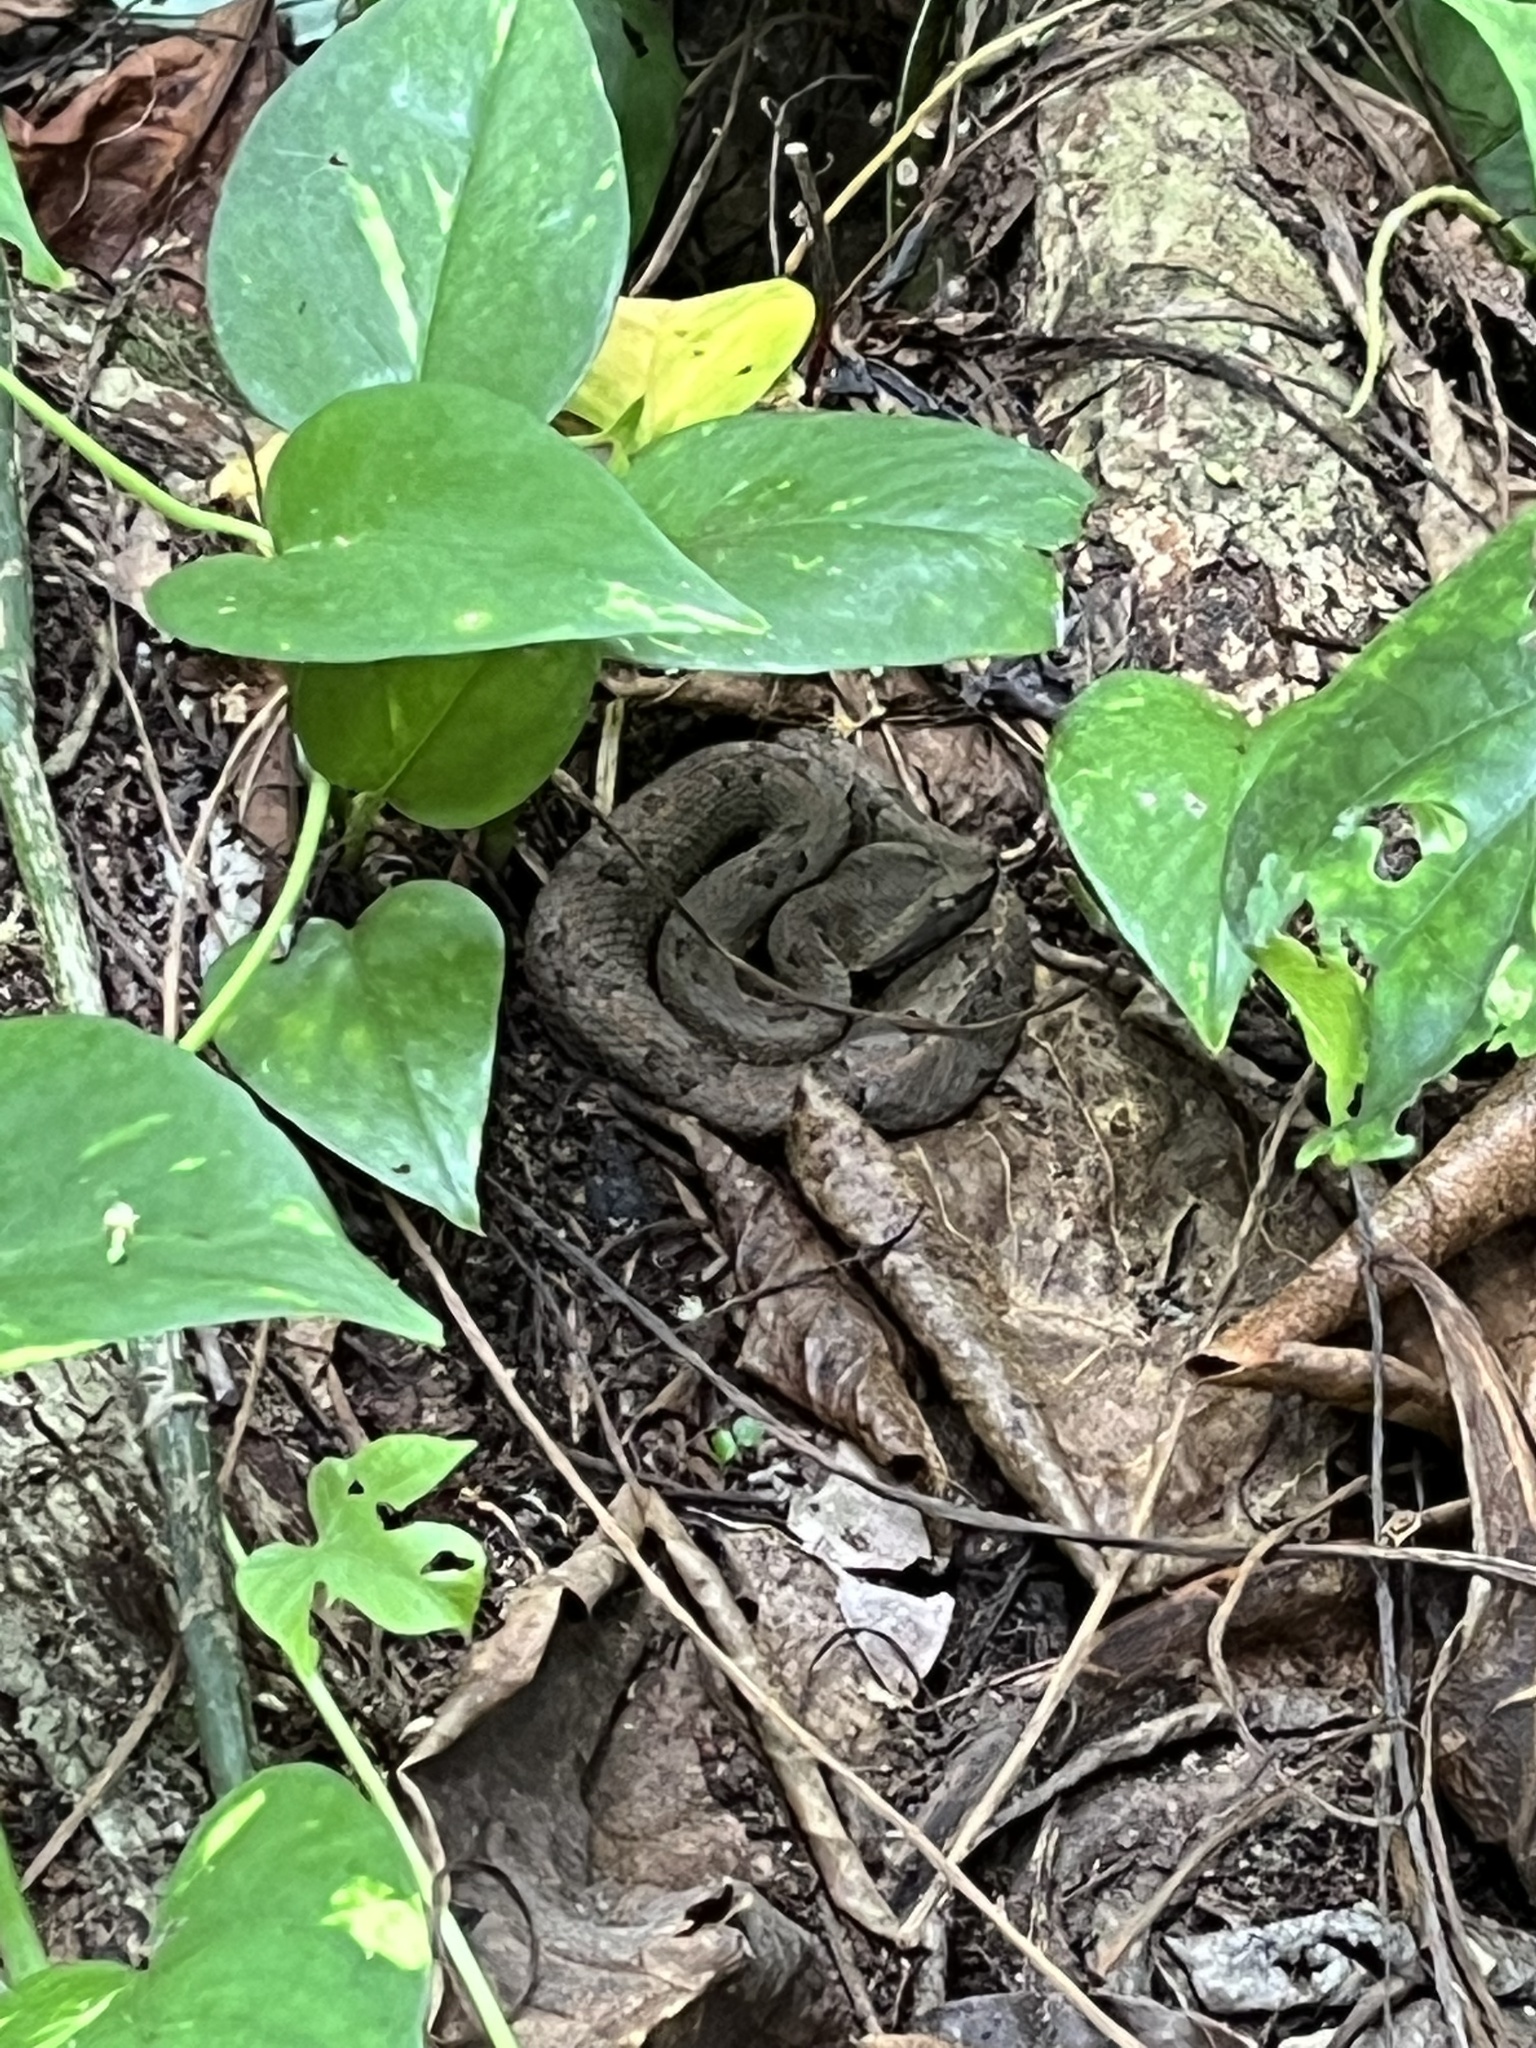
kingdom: Animalia
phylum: Chordata
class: Squamata
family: Viperidae
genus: Porthidium
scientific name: Porthidium nasutum
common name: Hognosed pit viper
